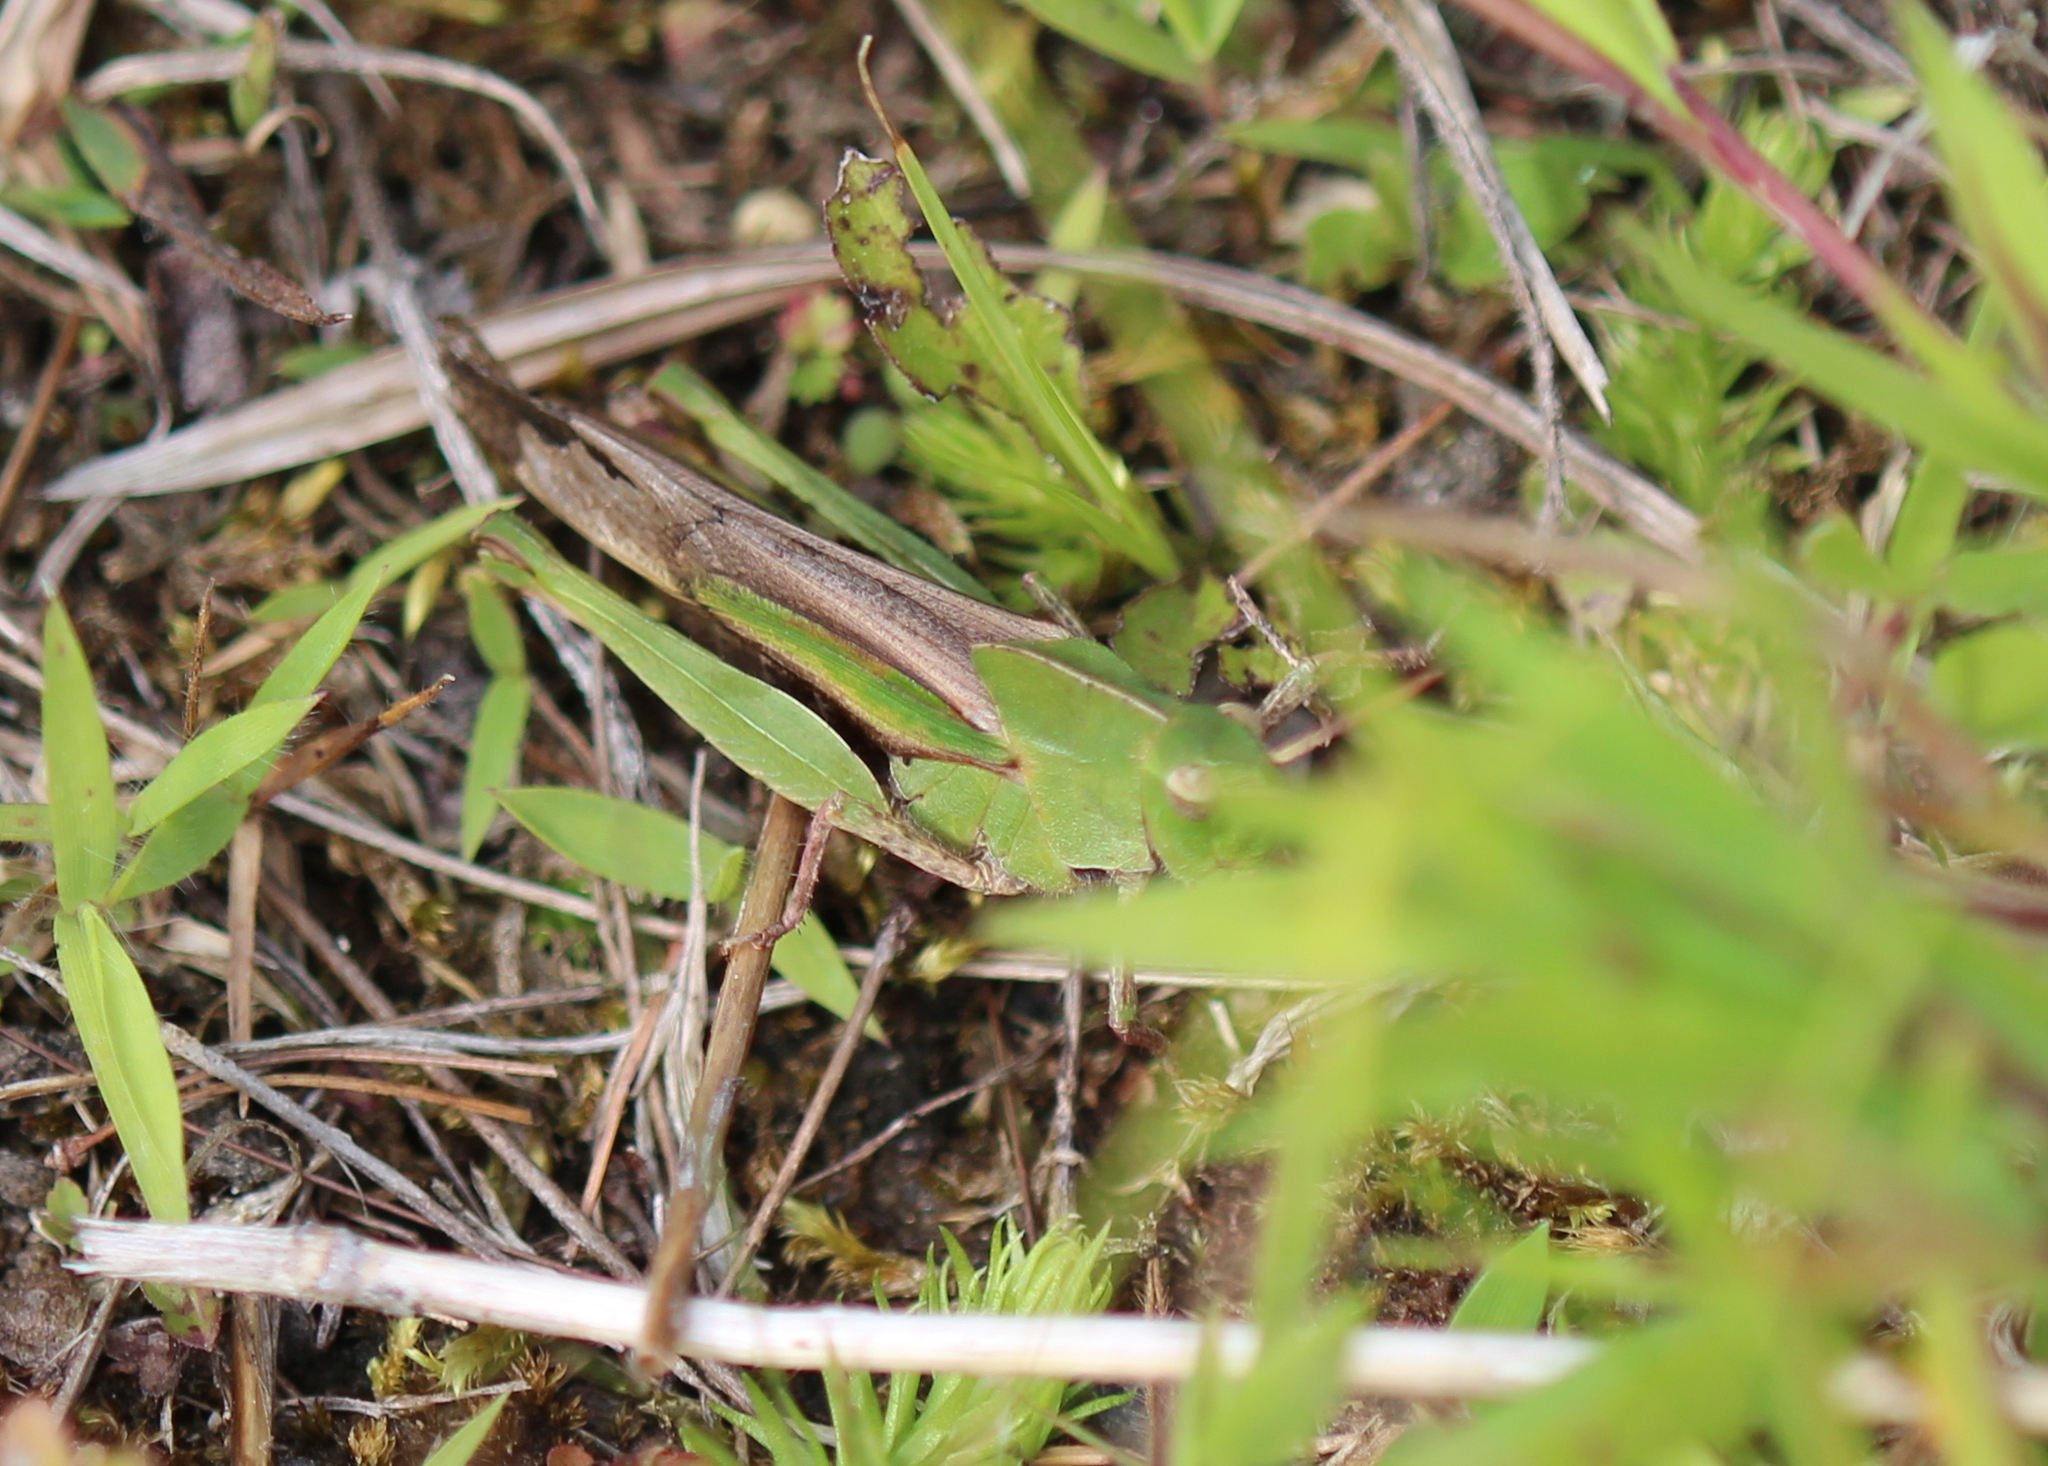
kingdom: Animalia
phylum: Arthropoda
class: Insecta
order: Orthoptera
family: Acrididae
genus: Chortophaga
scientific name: Chortophaga viridifasciata
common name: Green-striped grasshopper
